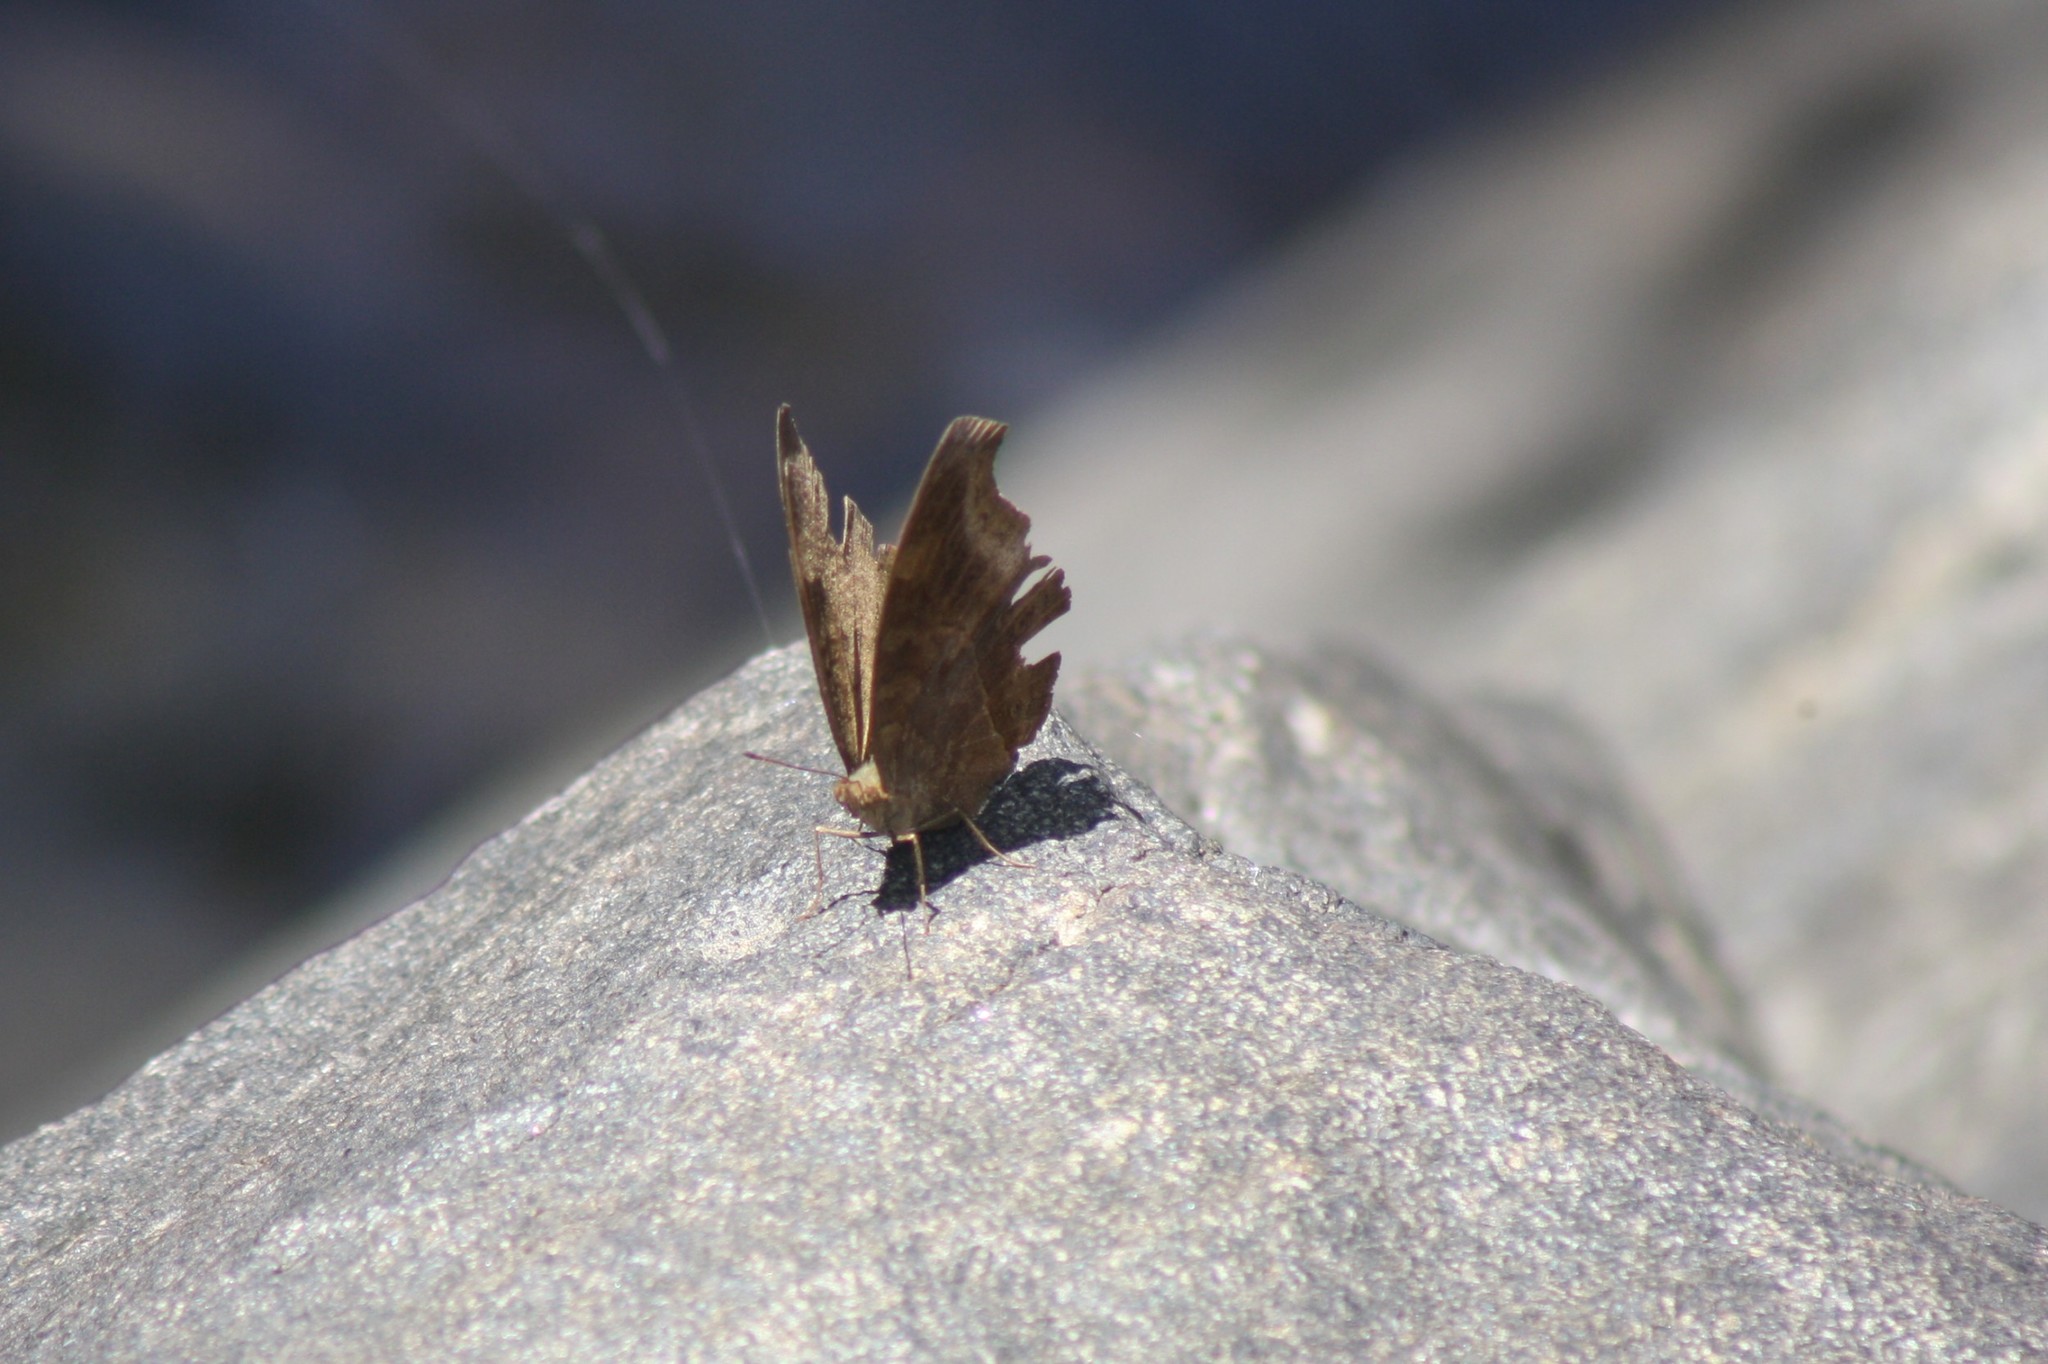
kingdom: Animalia
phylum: Arthropoda
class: Insecta
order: Lepidoptera
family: Nymphalidae
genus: Junonia
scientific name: Junonia iphita
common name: Chocolate pansy
